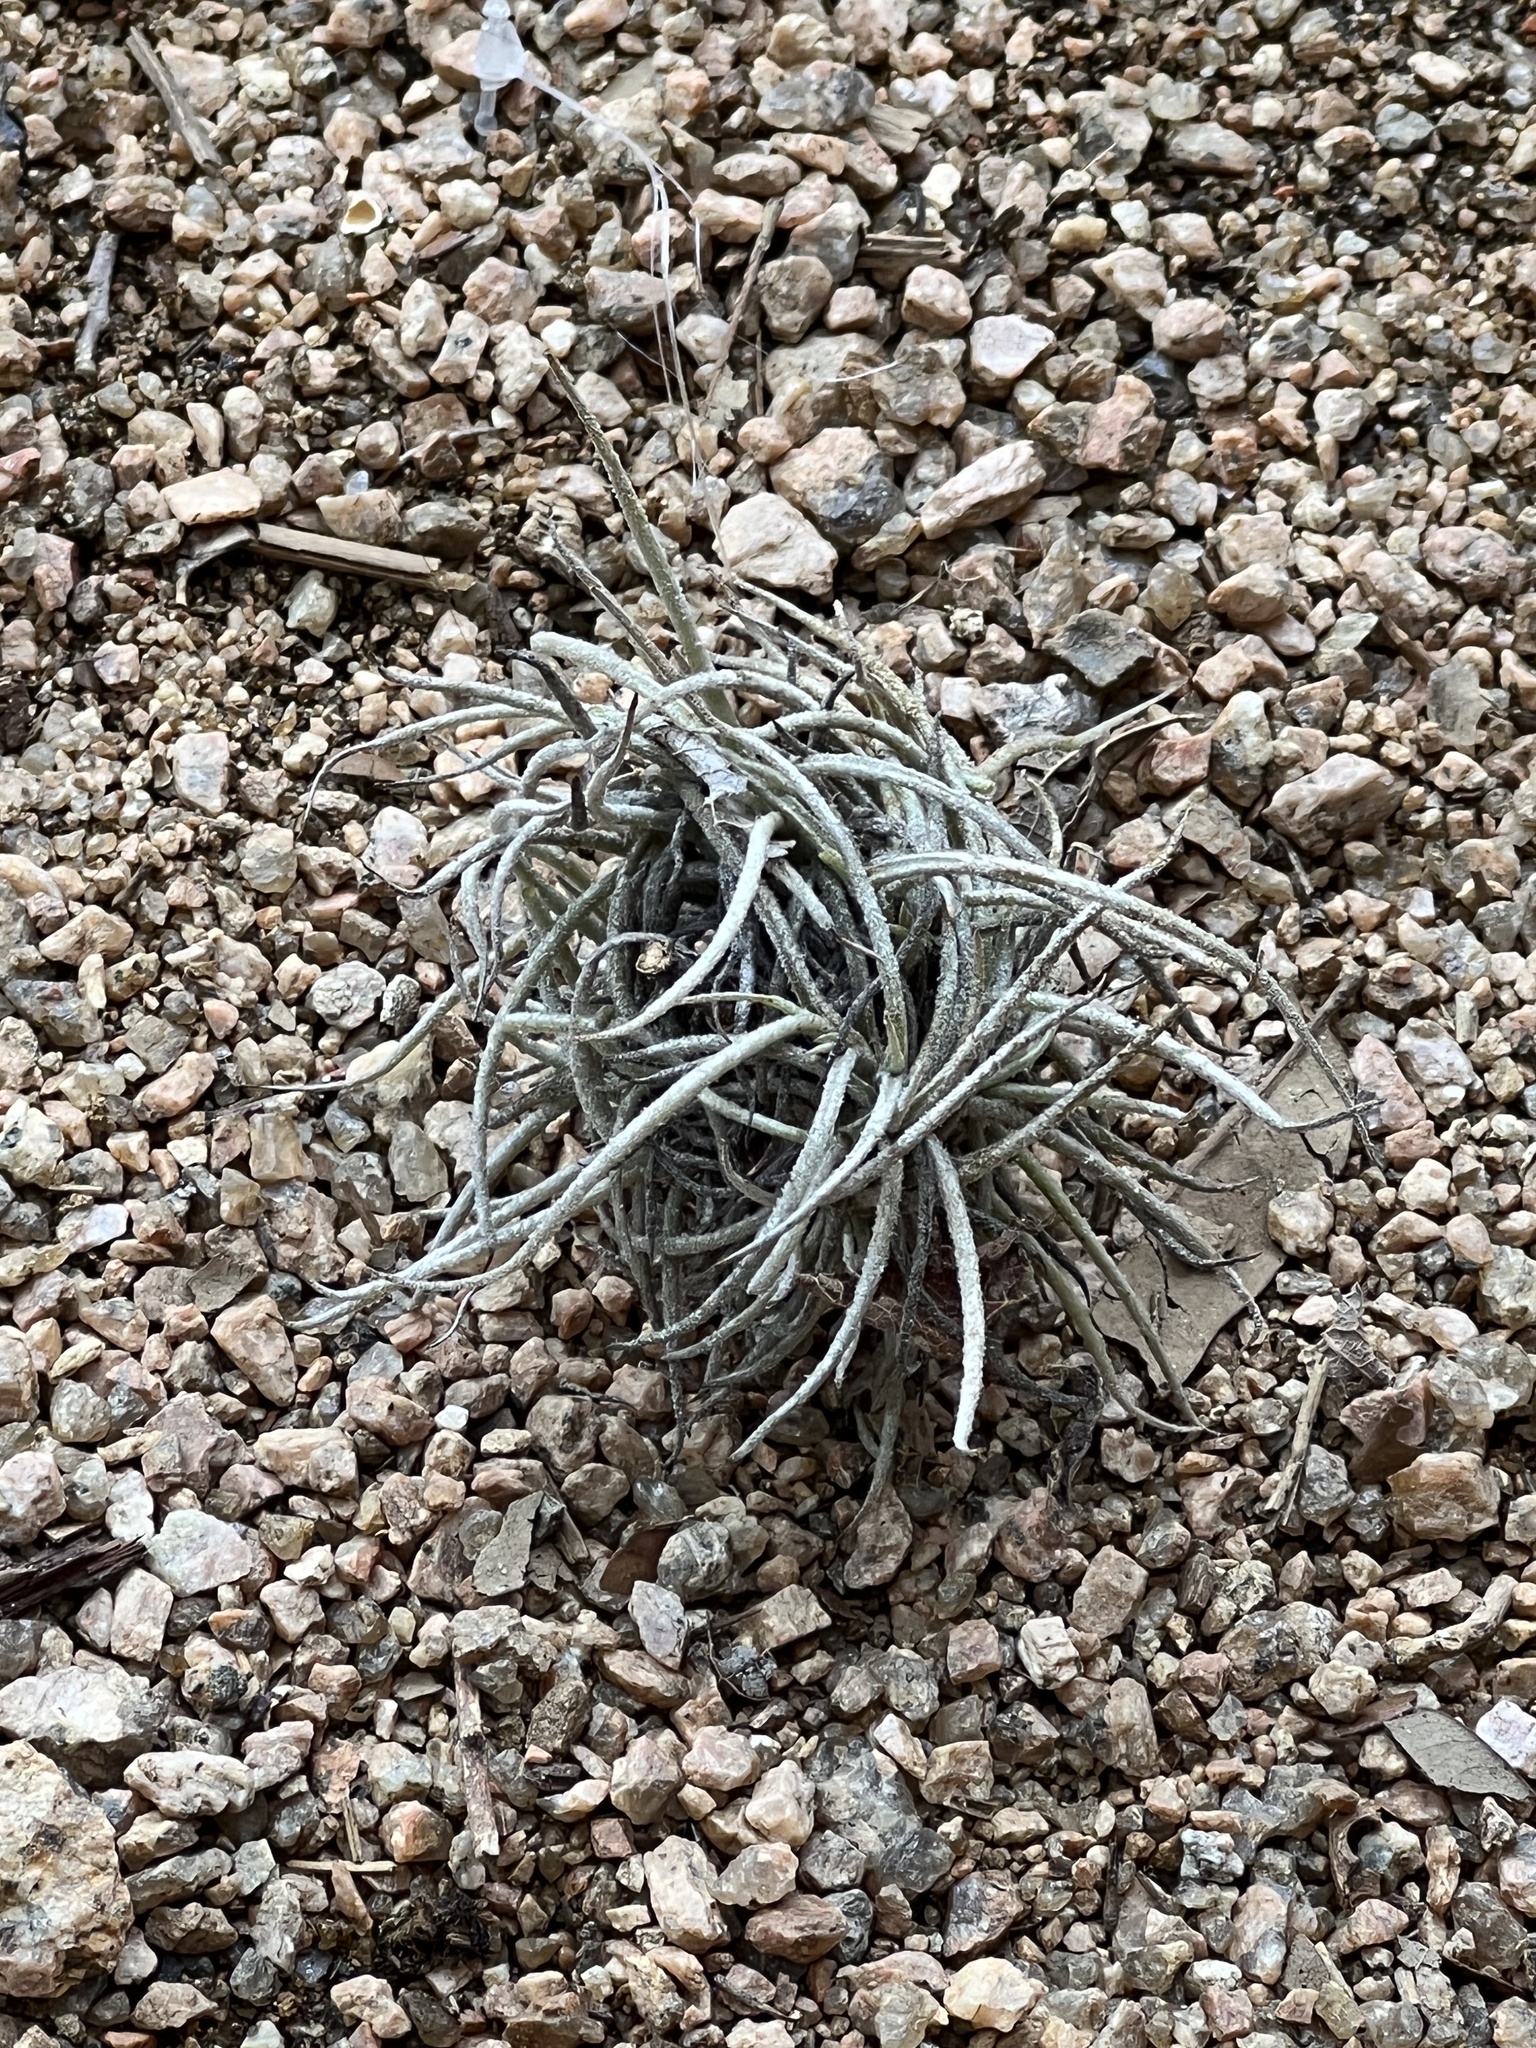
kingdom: Plantae
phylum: Tracheophyta
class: Liliopsida
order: Poales
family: Bromeliaceae
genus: Tillandsia
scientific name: Tillandsia recurvata
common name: Small ballmoss
